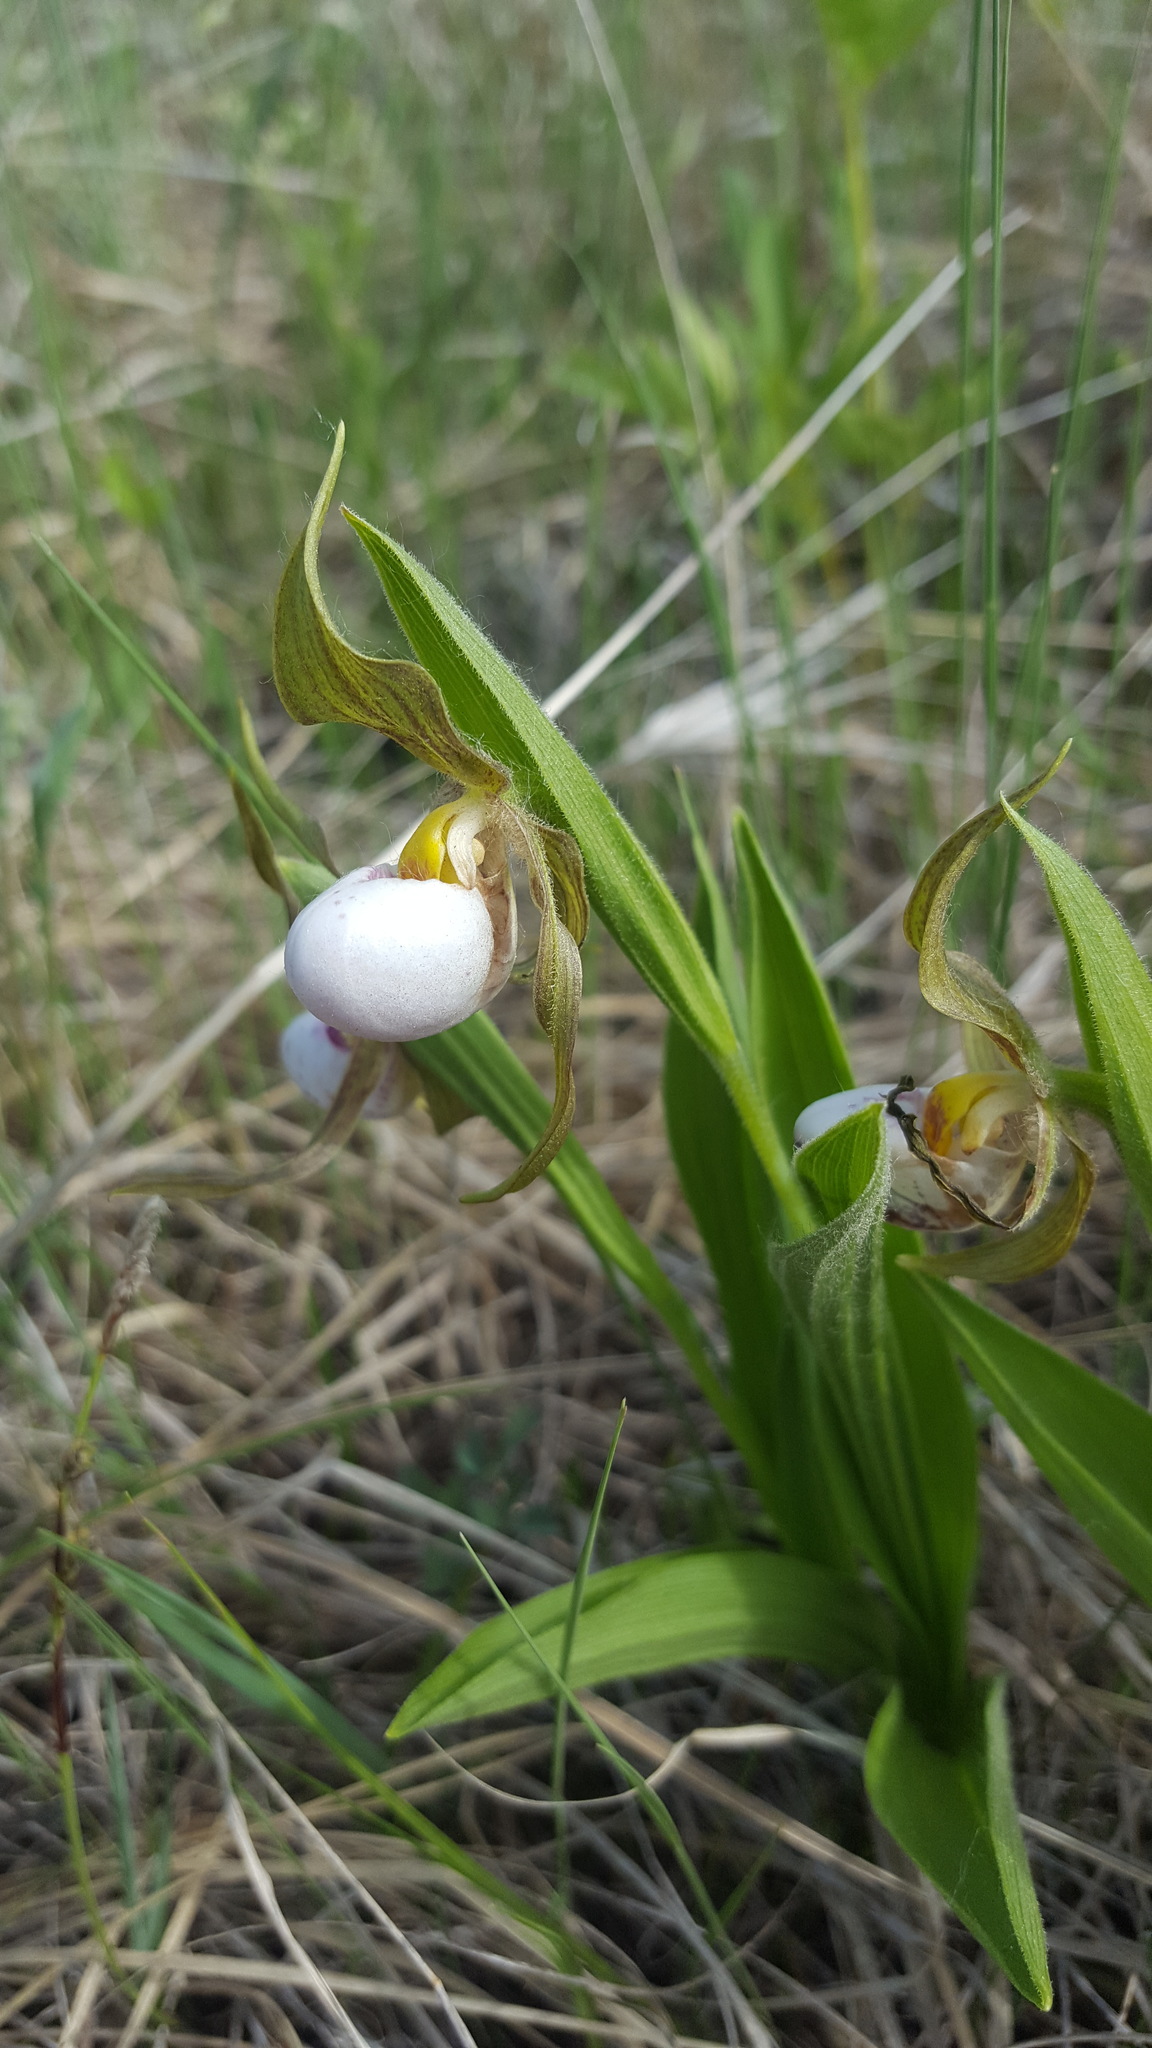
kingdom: Plantae
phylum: Tracheophyta
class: Liliopsida
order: Asparagales
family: Orchidaceae
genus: Cypripedium
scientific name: Cypripedium candidum
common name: White lady's-slipper
